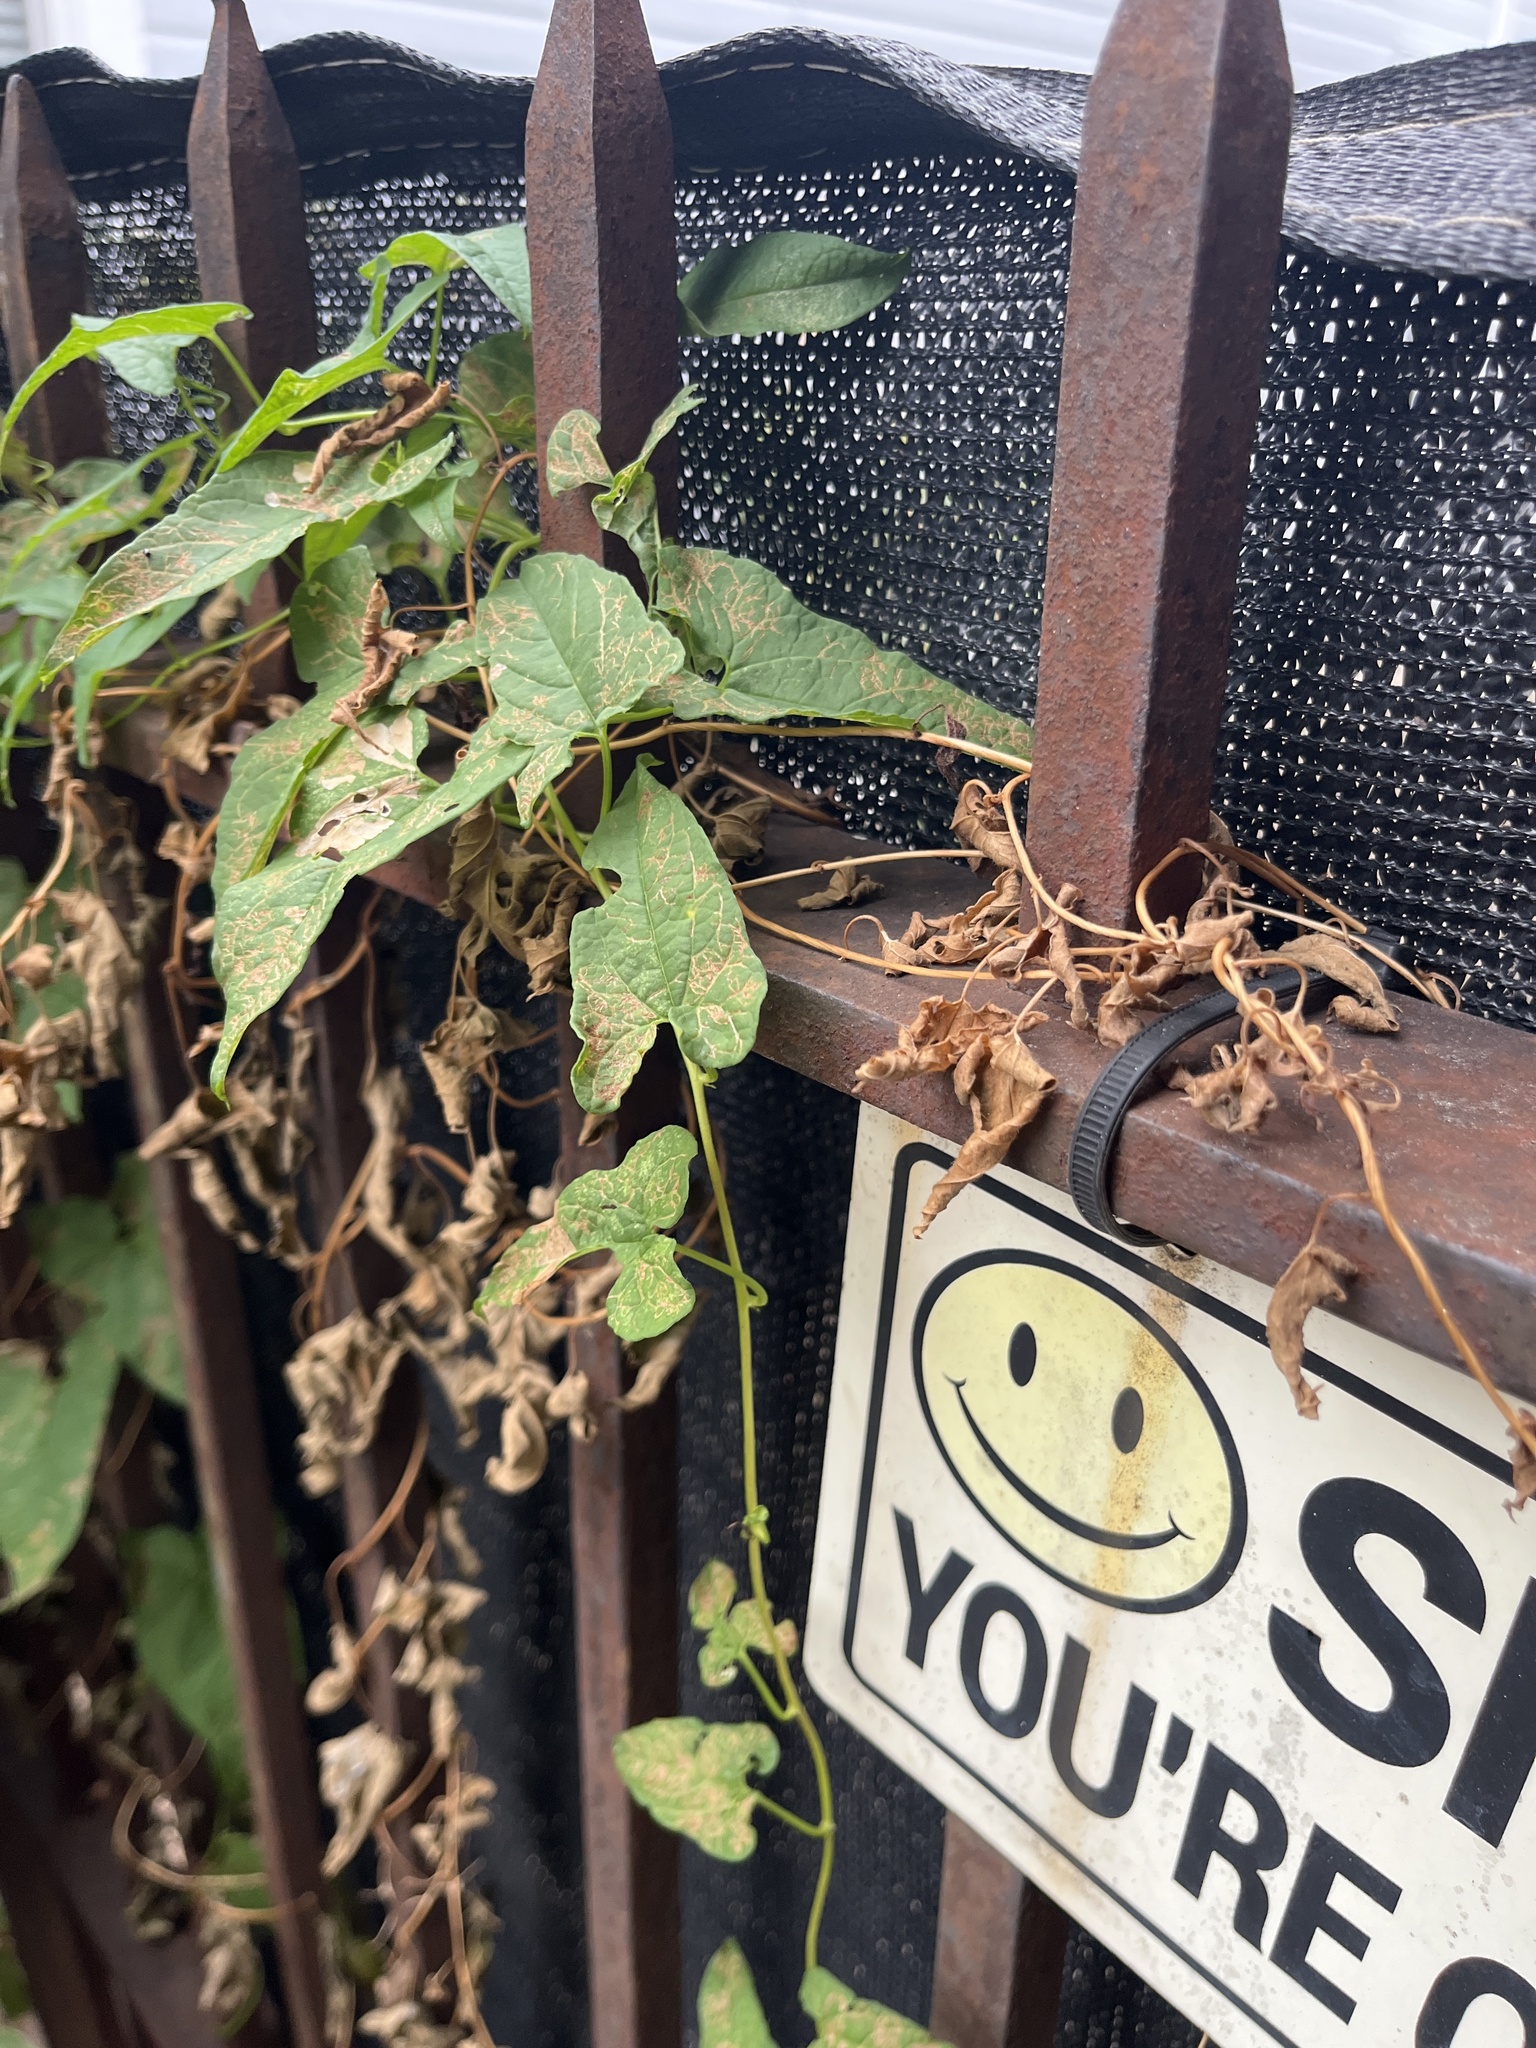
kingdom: Plantae
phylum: Tracheophyta
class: Magnoliopsida
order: Solanales
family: Convolvulaceae
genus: Convolvulus
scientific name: Convolvulus arvensis
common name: Field bindweed
